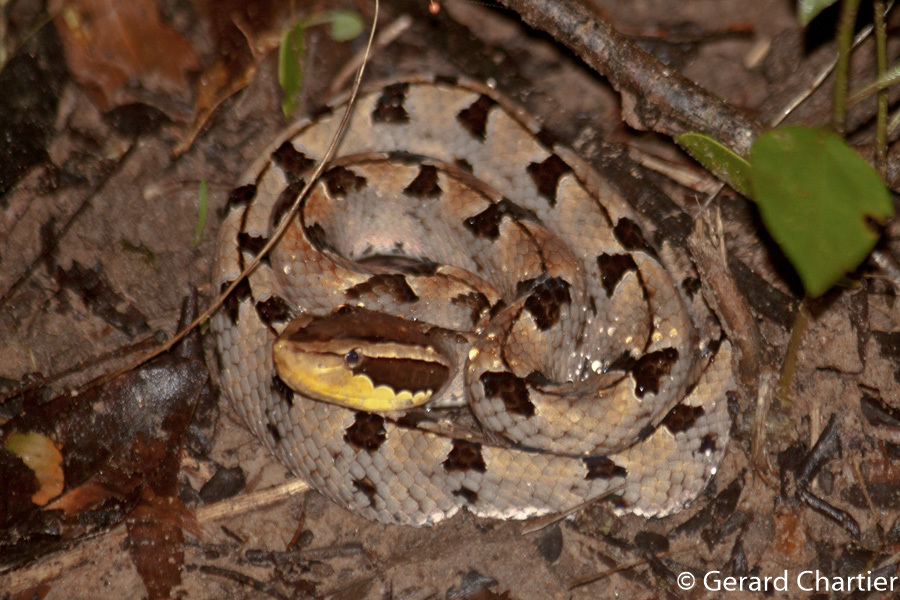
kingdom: Animalia
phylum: Chordata
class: Squamata
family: Viperidae
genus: Calloselasma
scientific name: Calloselasma rhodostoma
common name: Malayan pit viper
